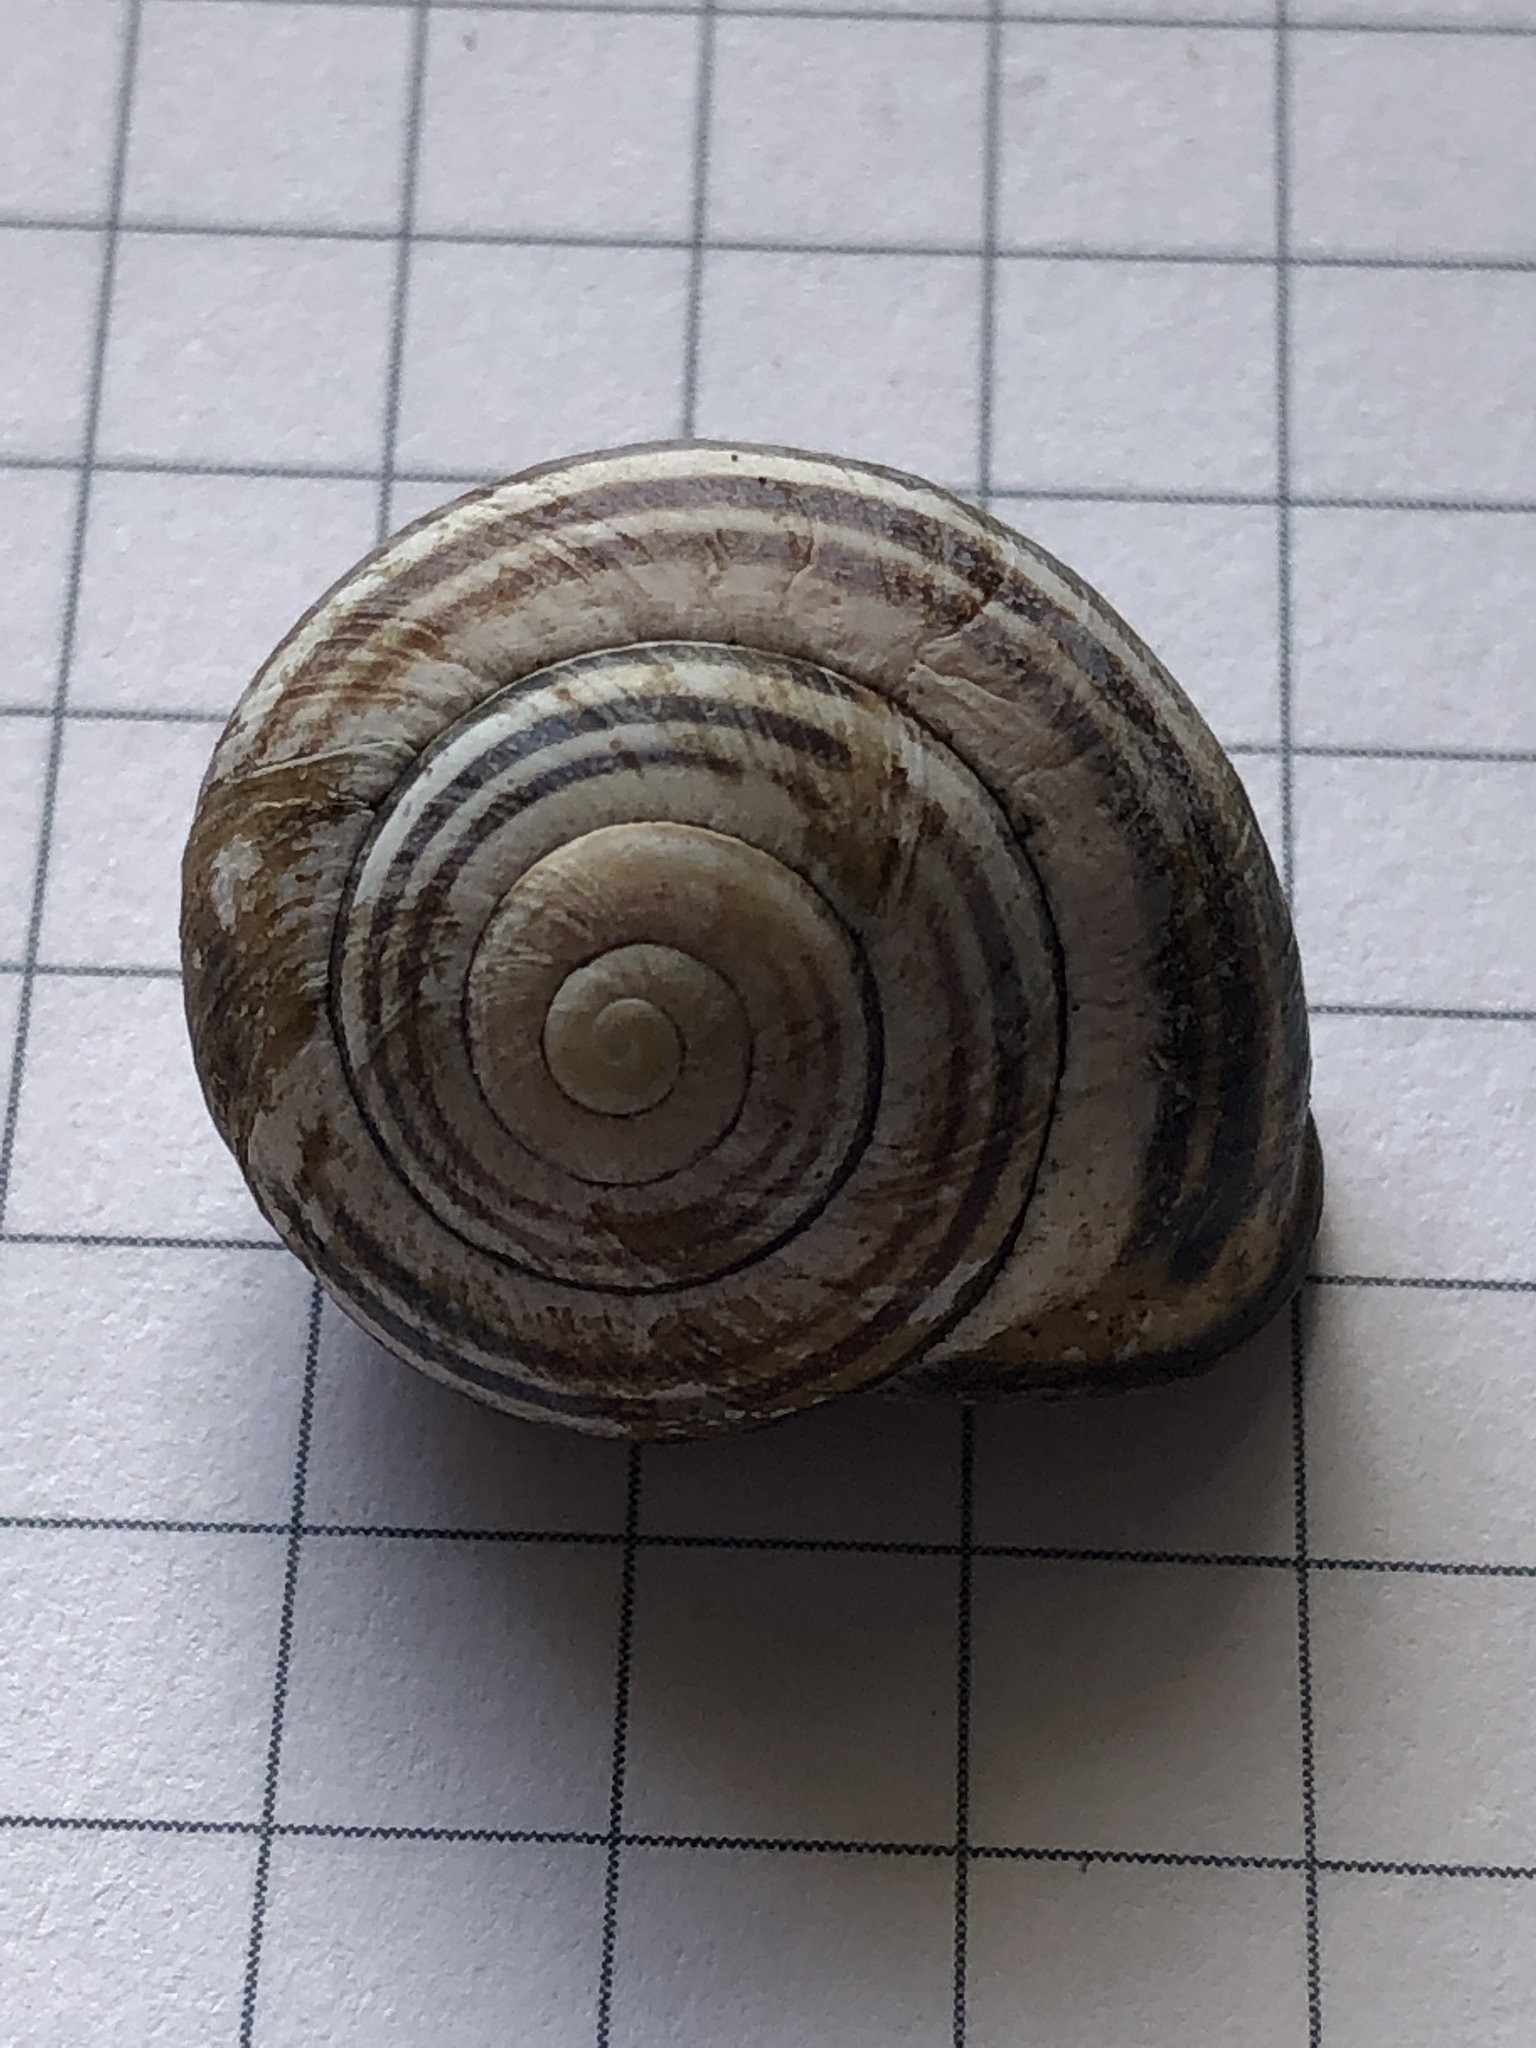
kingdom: Animalia
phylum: Mollusca
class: Gastropoda
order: Stylommatophora
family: Helicidae
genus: Cepaea
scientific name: Cepaea nemoralis
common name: Grovesnail
